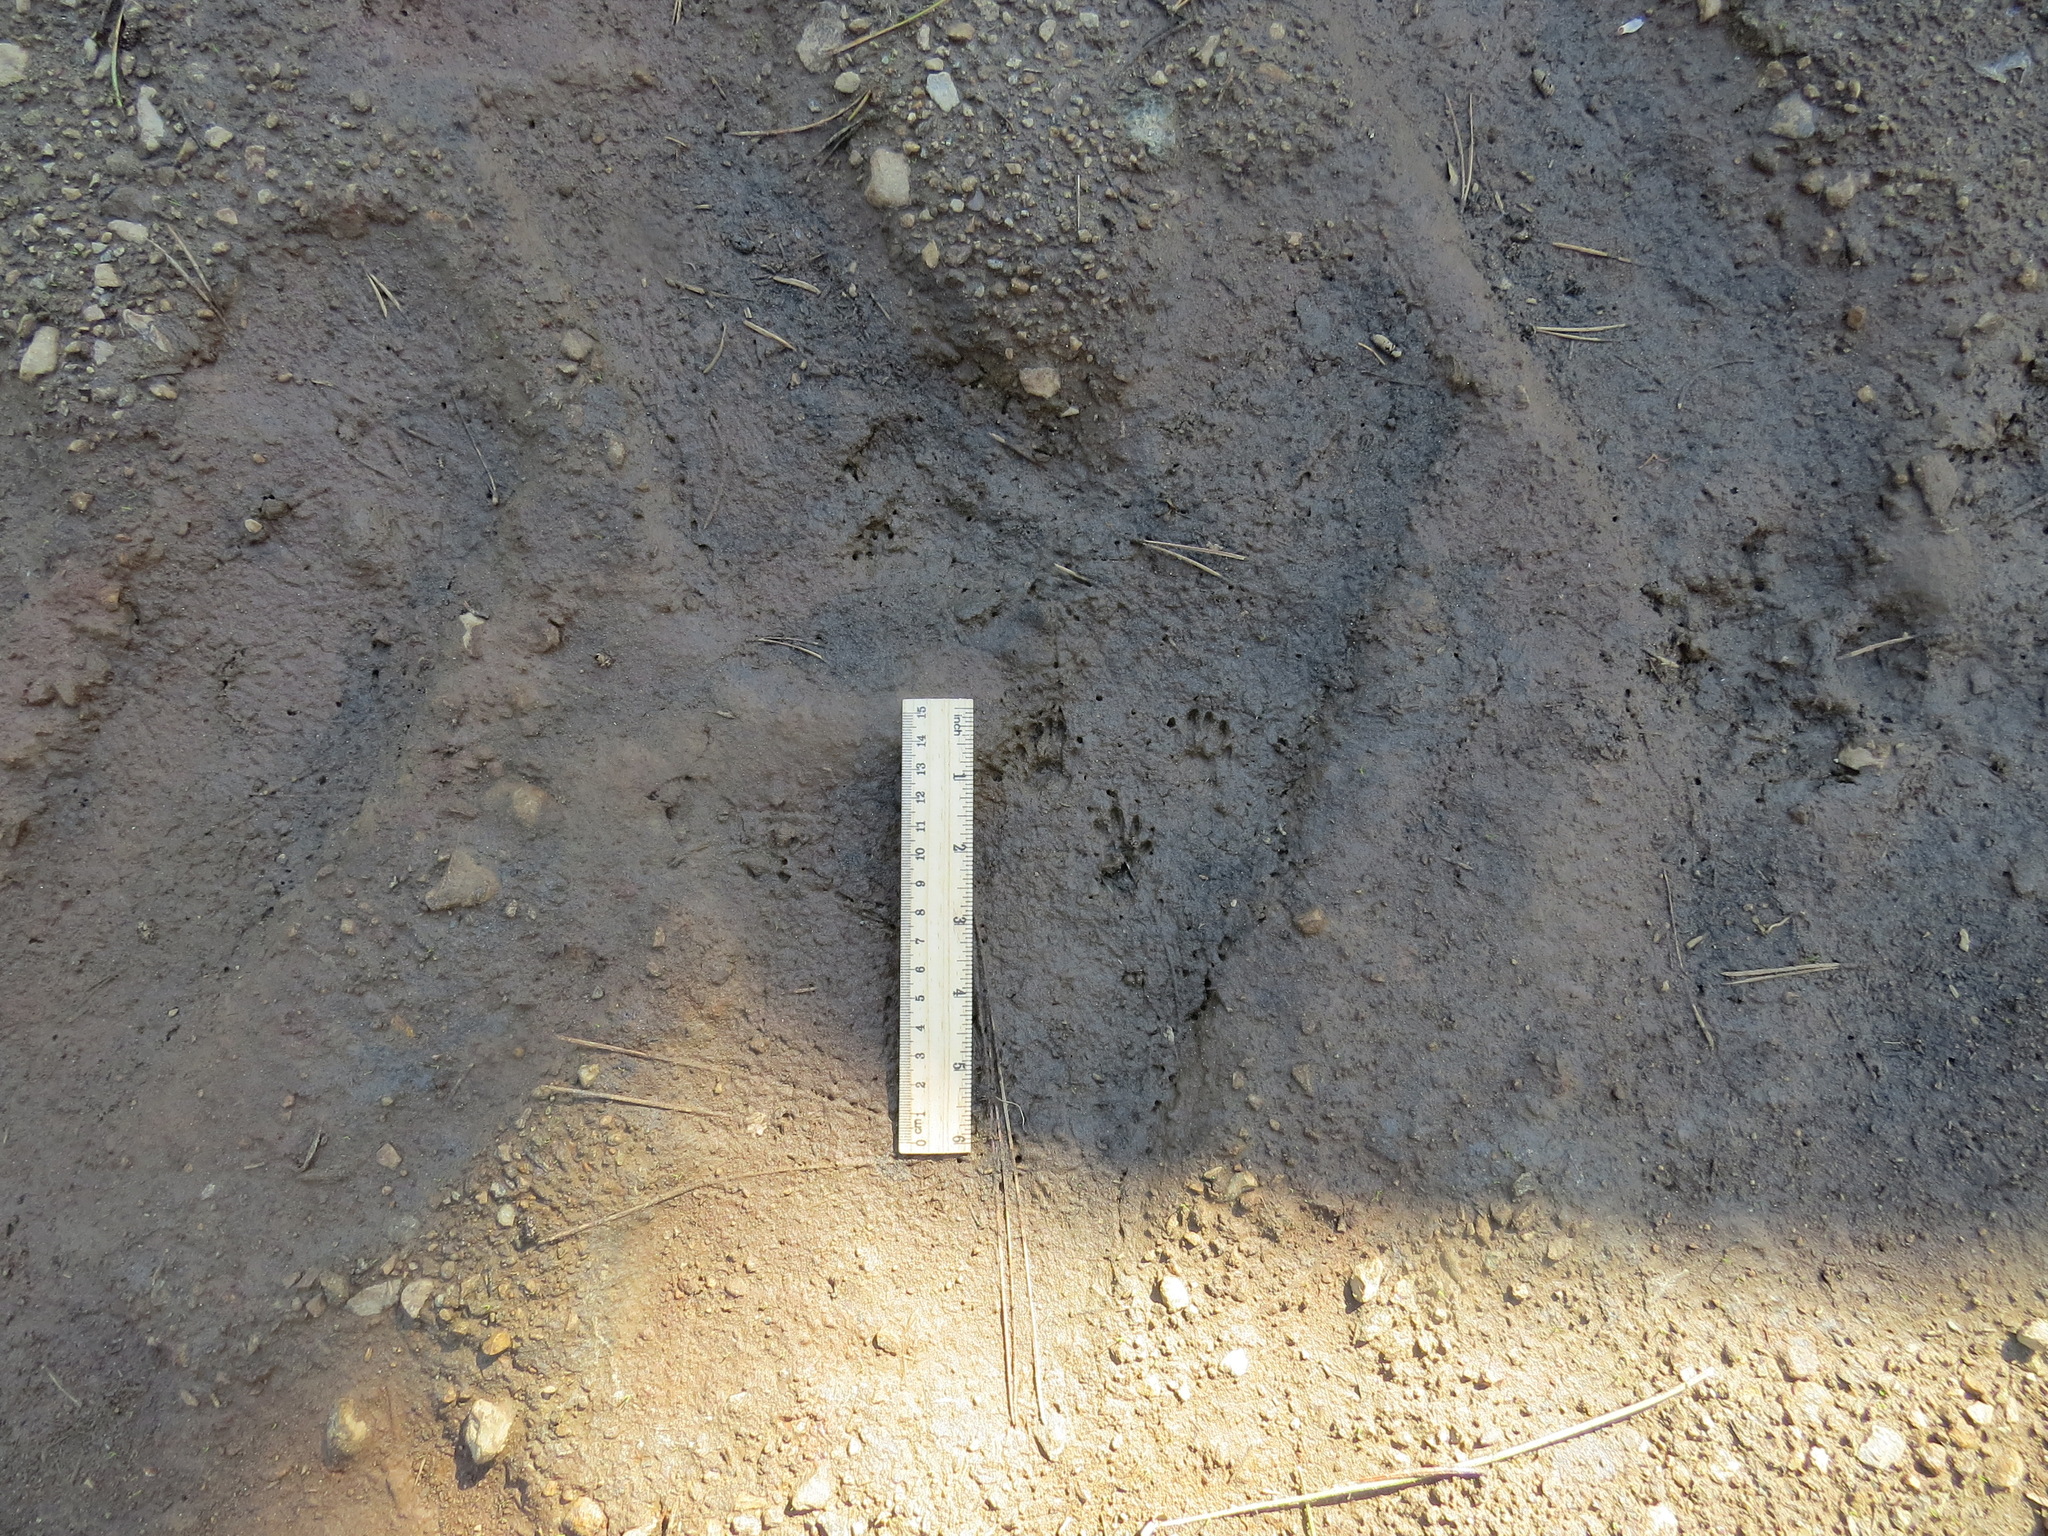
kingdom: Animalia
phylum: Chordata
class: Mammalia
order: Rodentia
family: Sciuridae
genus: Tamiasciurus
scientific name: Tamiasciurus douglasii
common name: Douglas's squirrel
